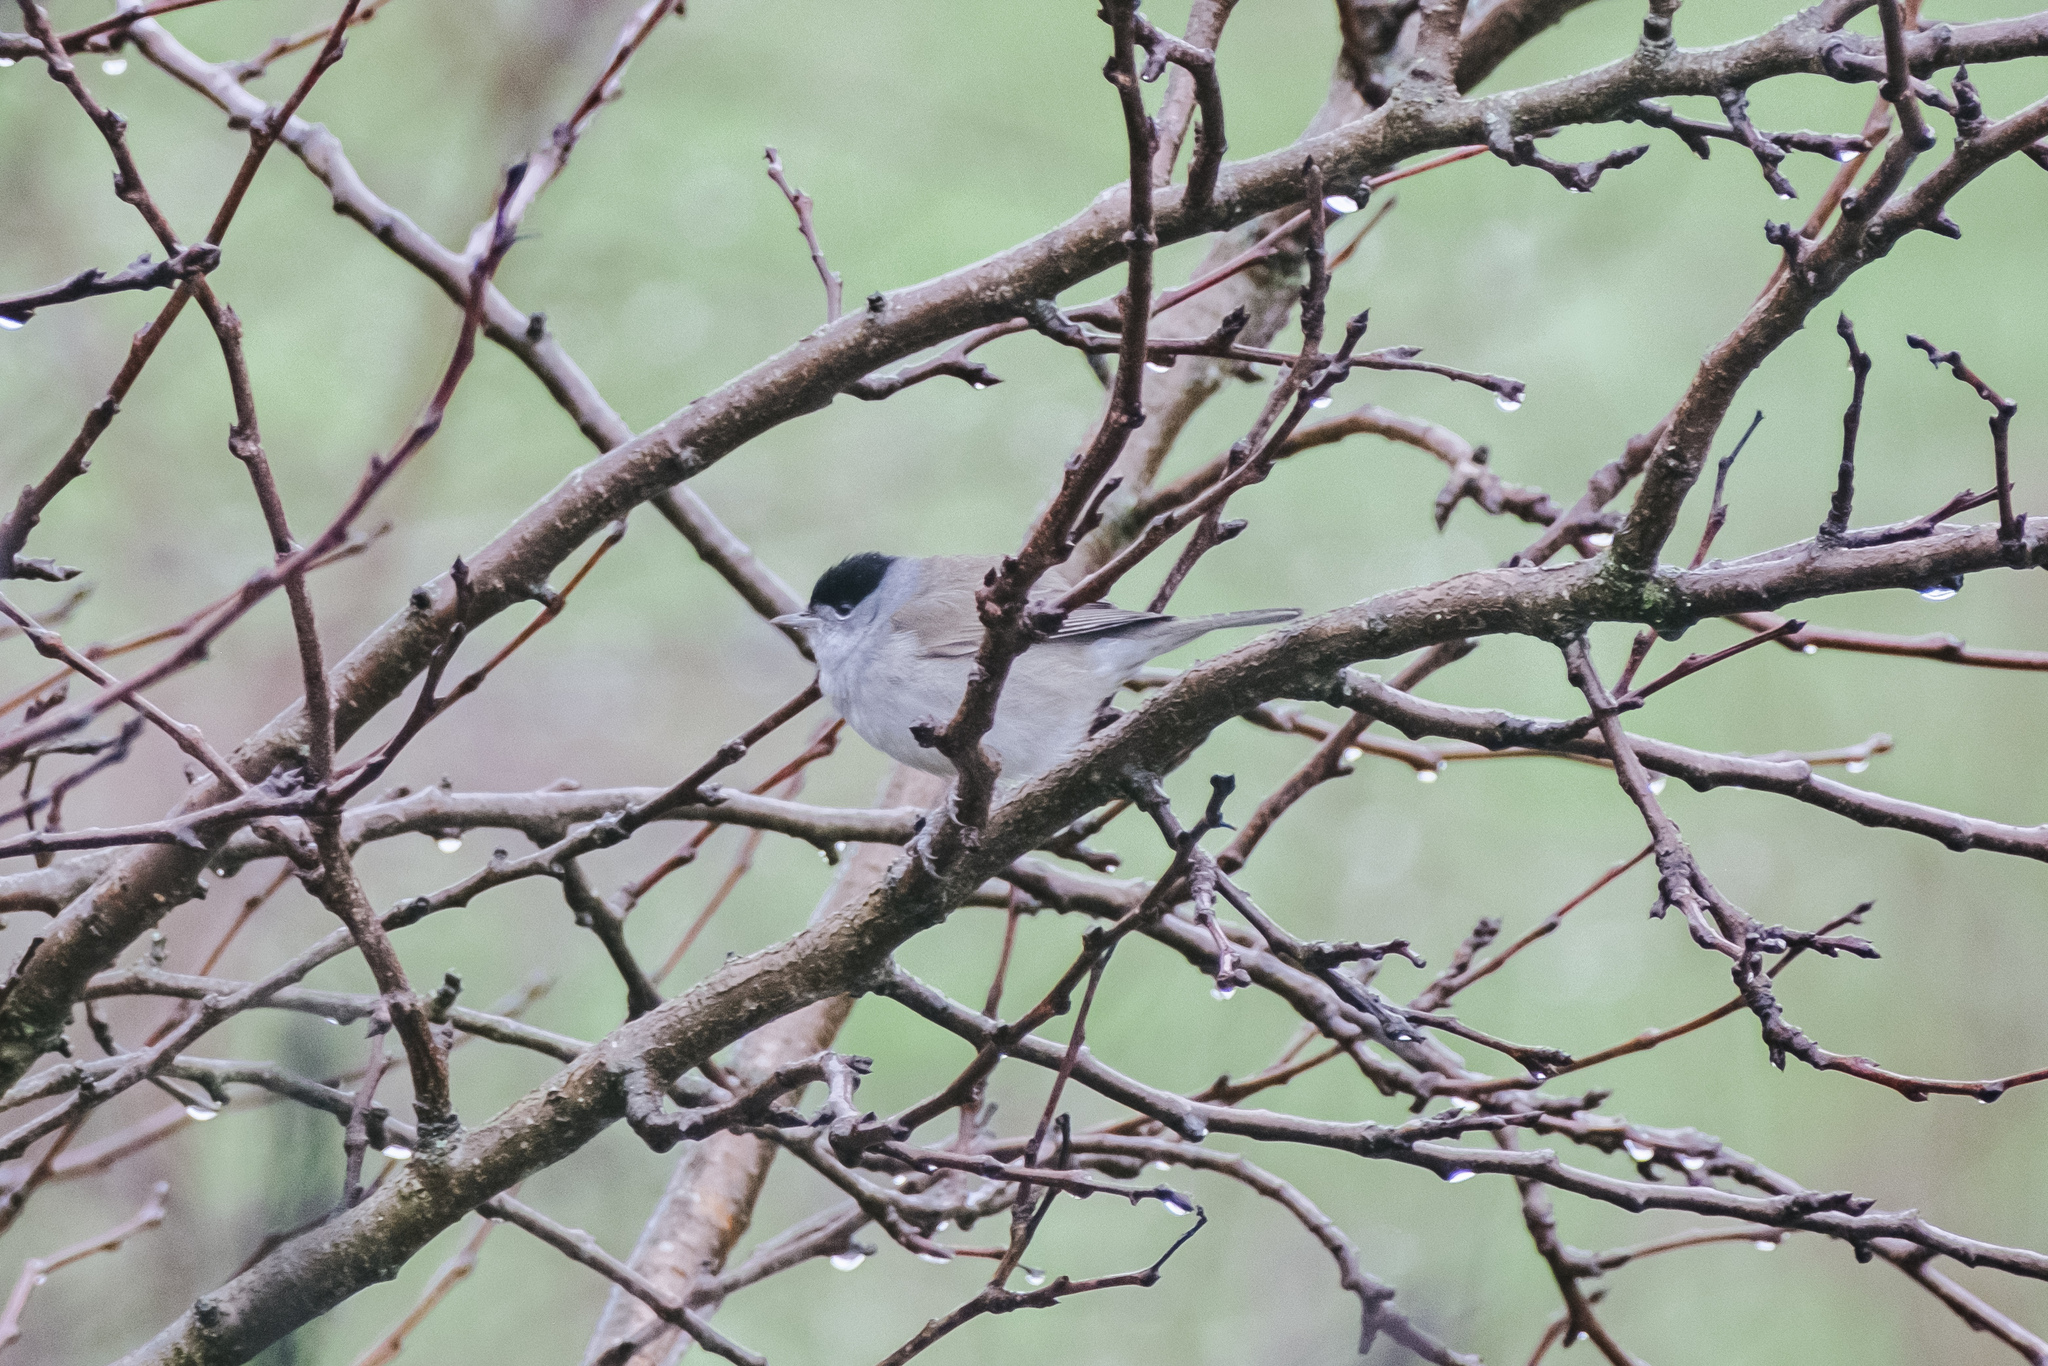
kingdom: Animalia
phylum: Chordata
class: Aves
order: Passeriformes
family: Sylviidae
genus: Sylvia
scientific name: Sylvia atricapilla
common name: Eurasian blackcap
